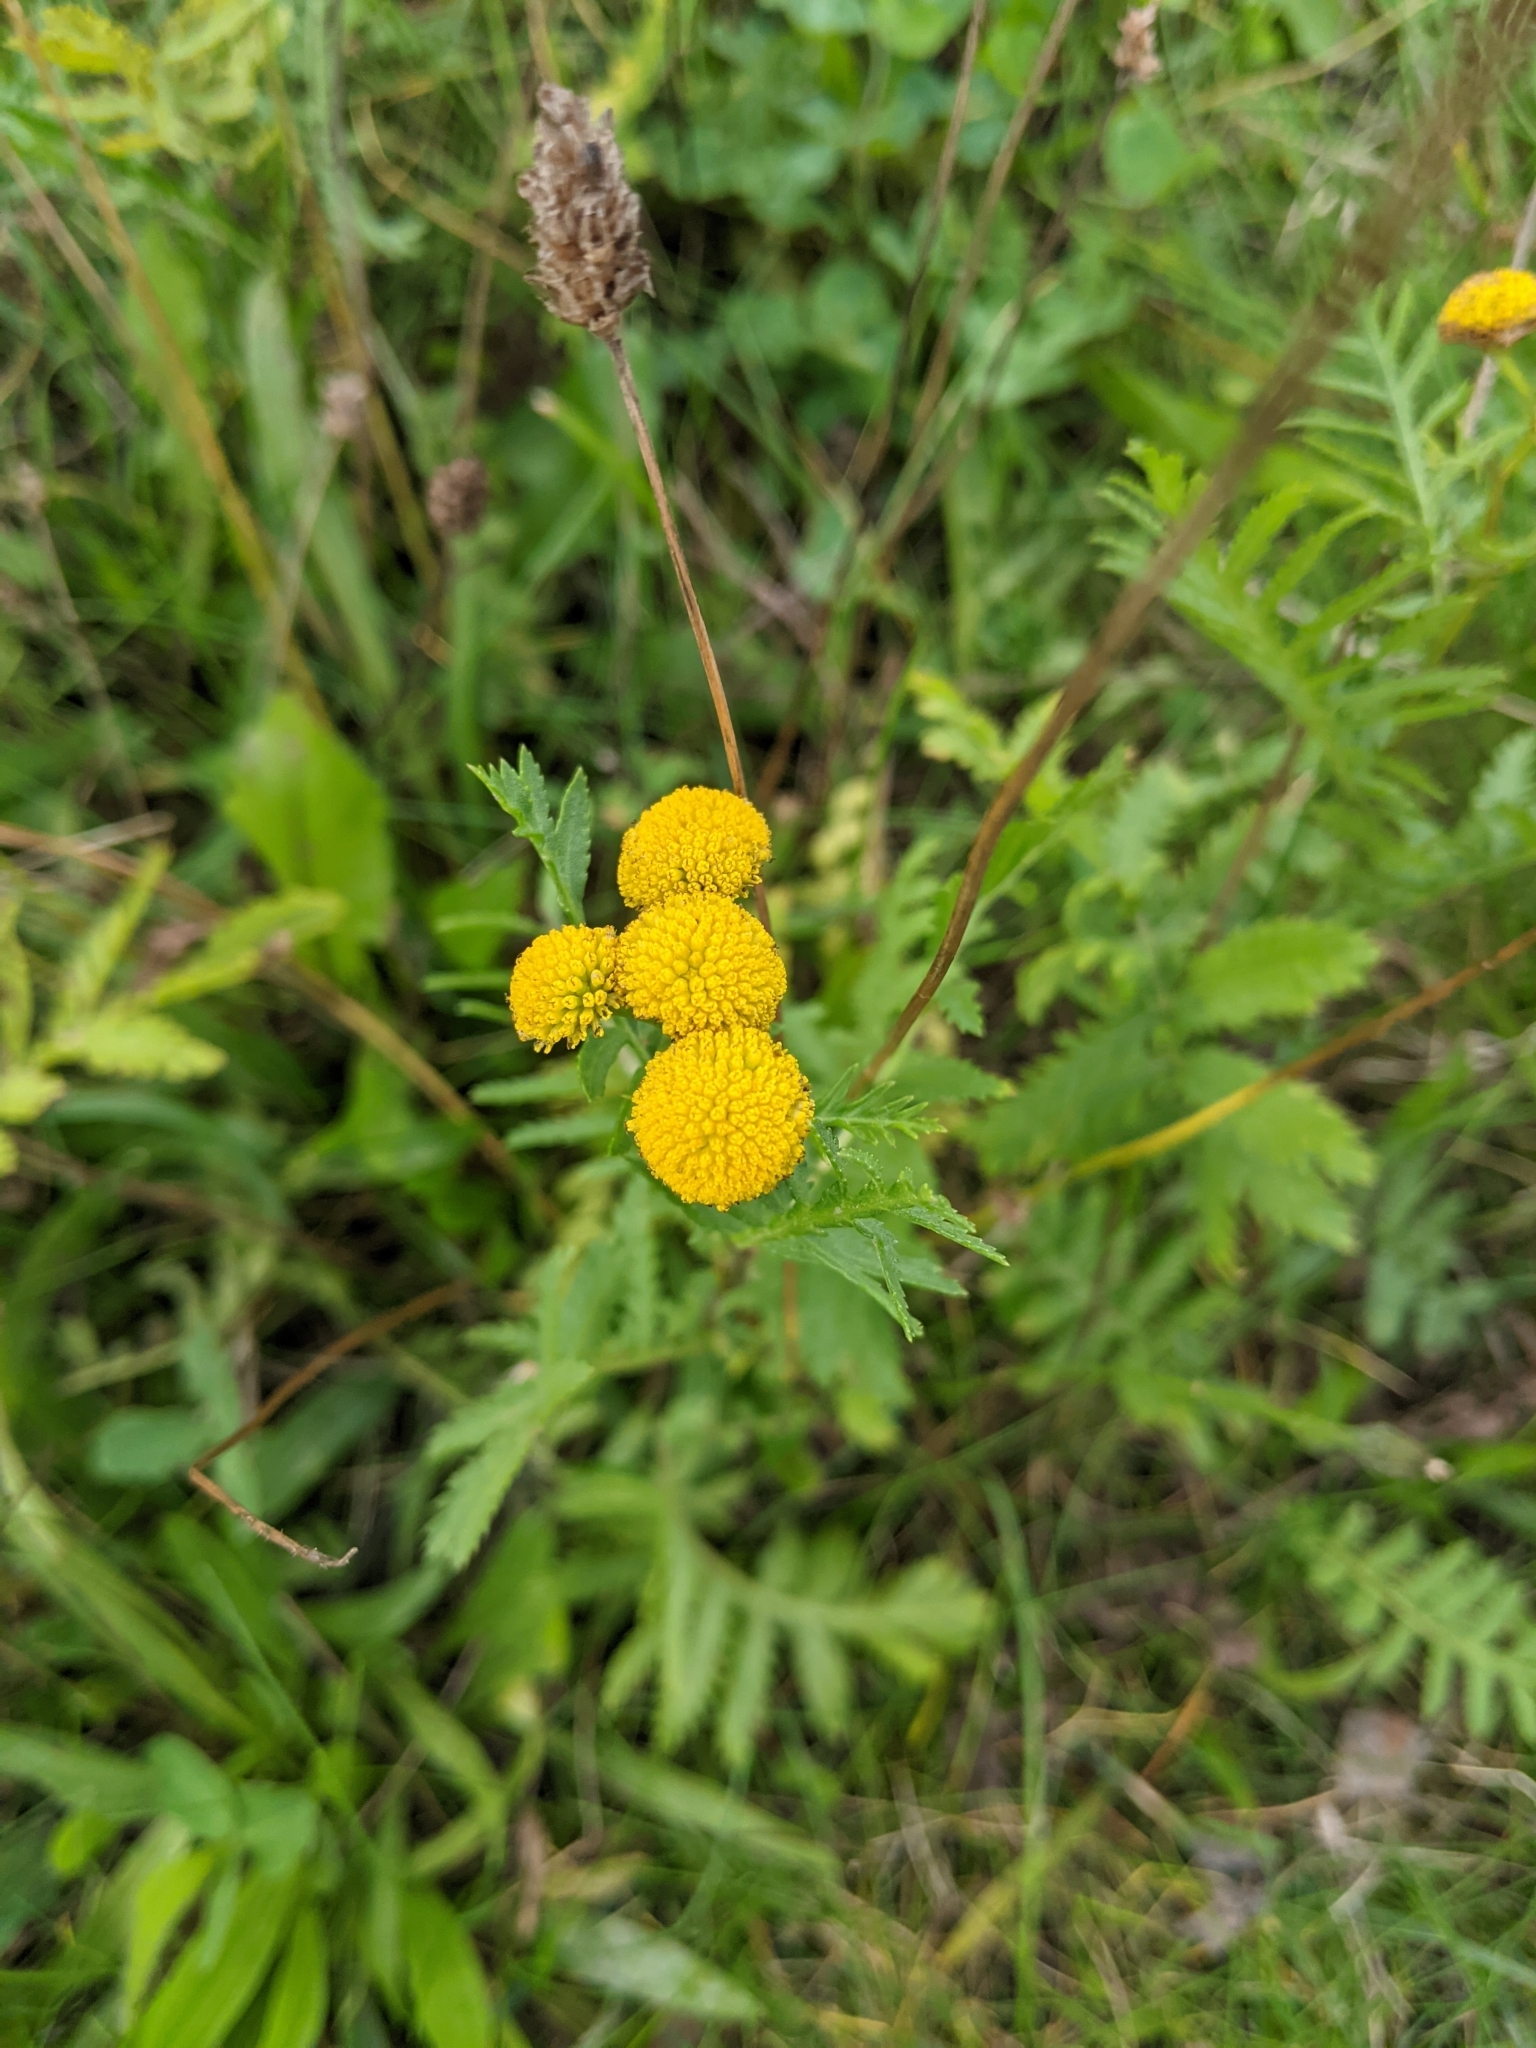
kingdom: Plantae
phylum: Tracheophyta
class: Magnoliopsida
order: Asterales
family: Asteraceae
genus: Tanacetum
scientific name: Tanacetum vulgare
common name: Common tansy
